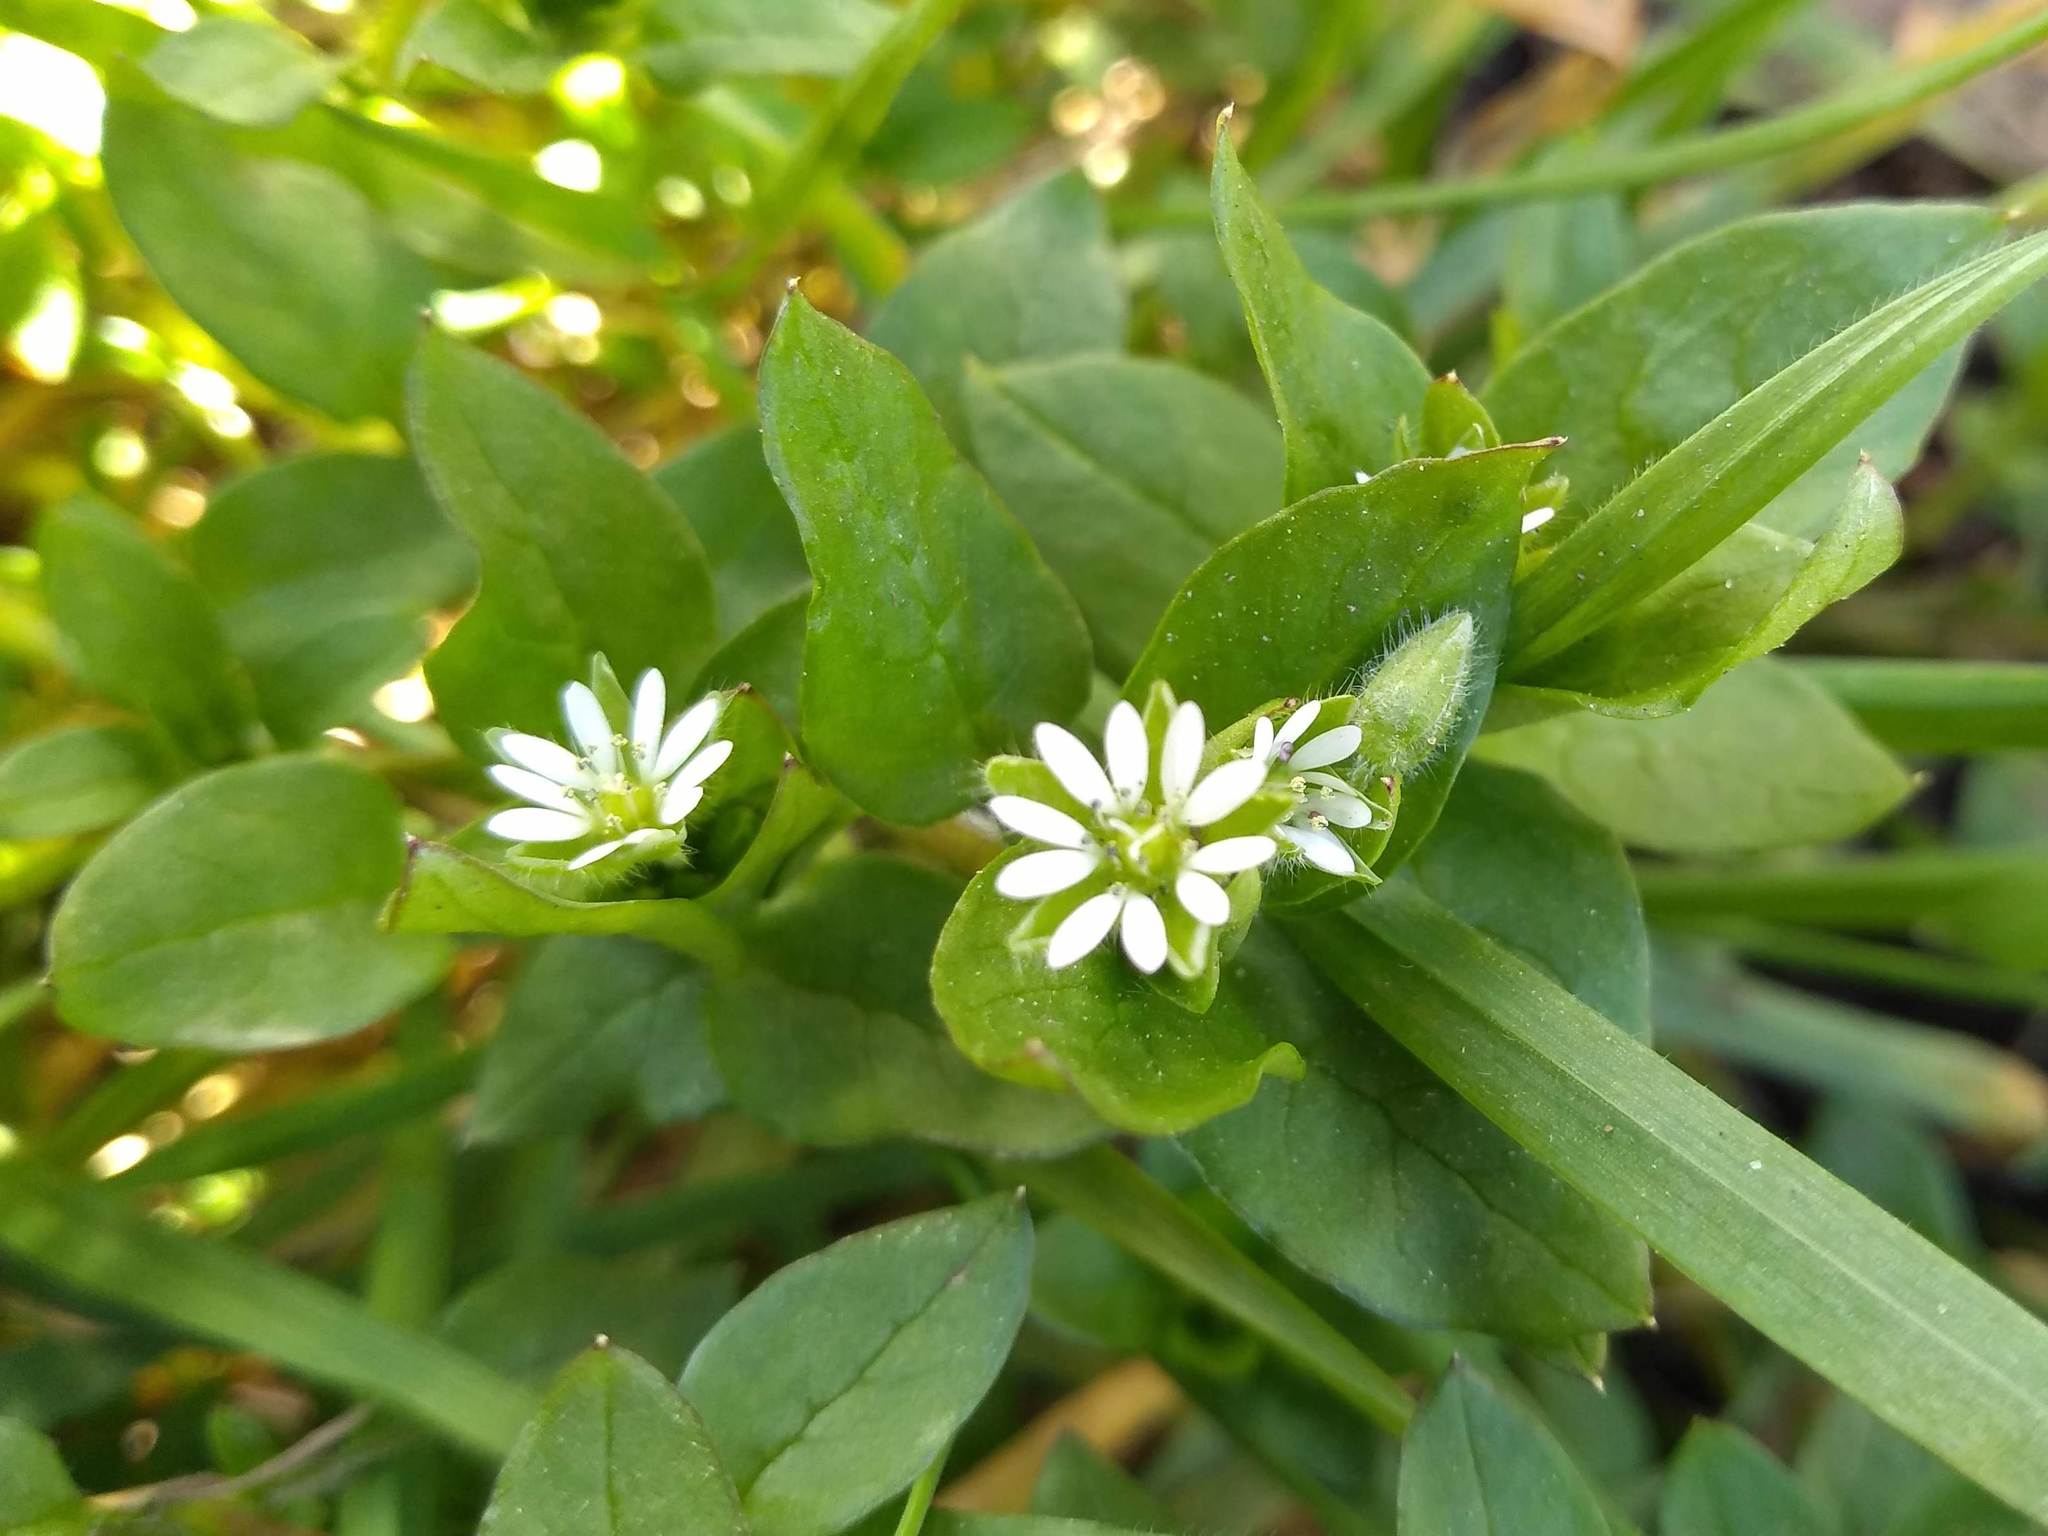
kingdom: Plantae
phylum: Tracheophyta
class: Magnoliopsida
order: Caryophyllales
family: Caryophyllaceae
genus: Stellaria
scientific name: Stellaria media
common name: Common chickweed
